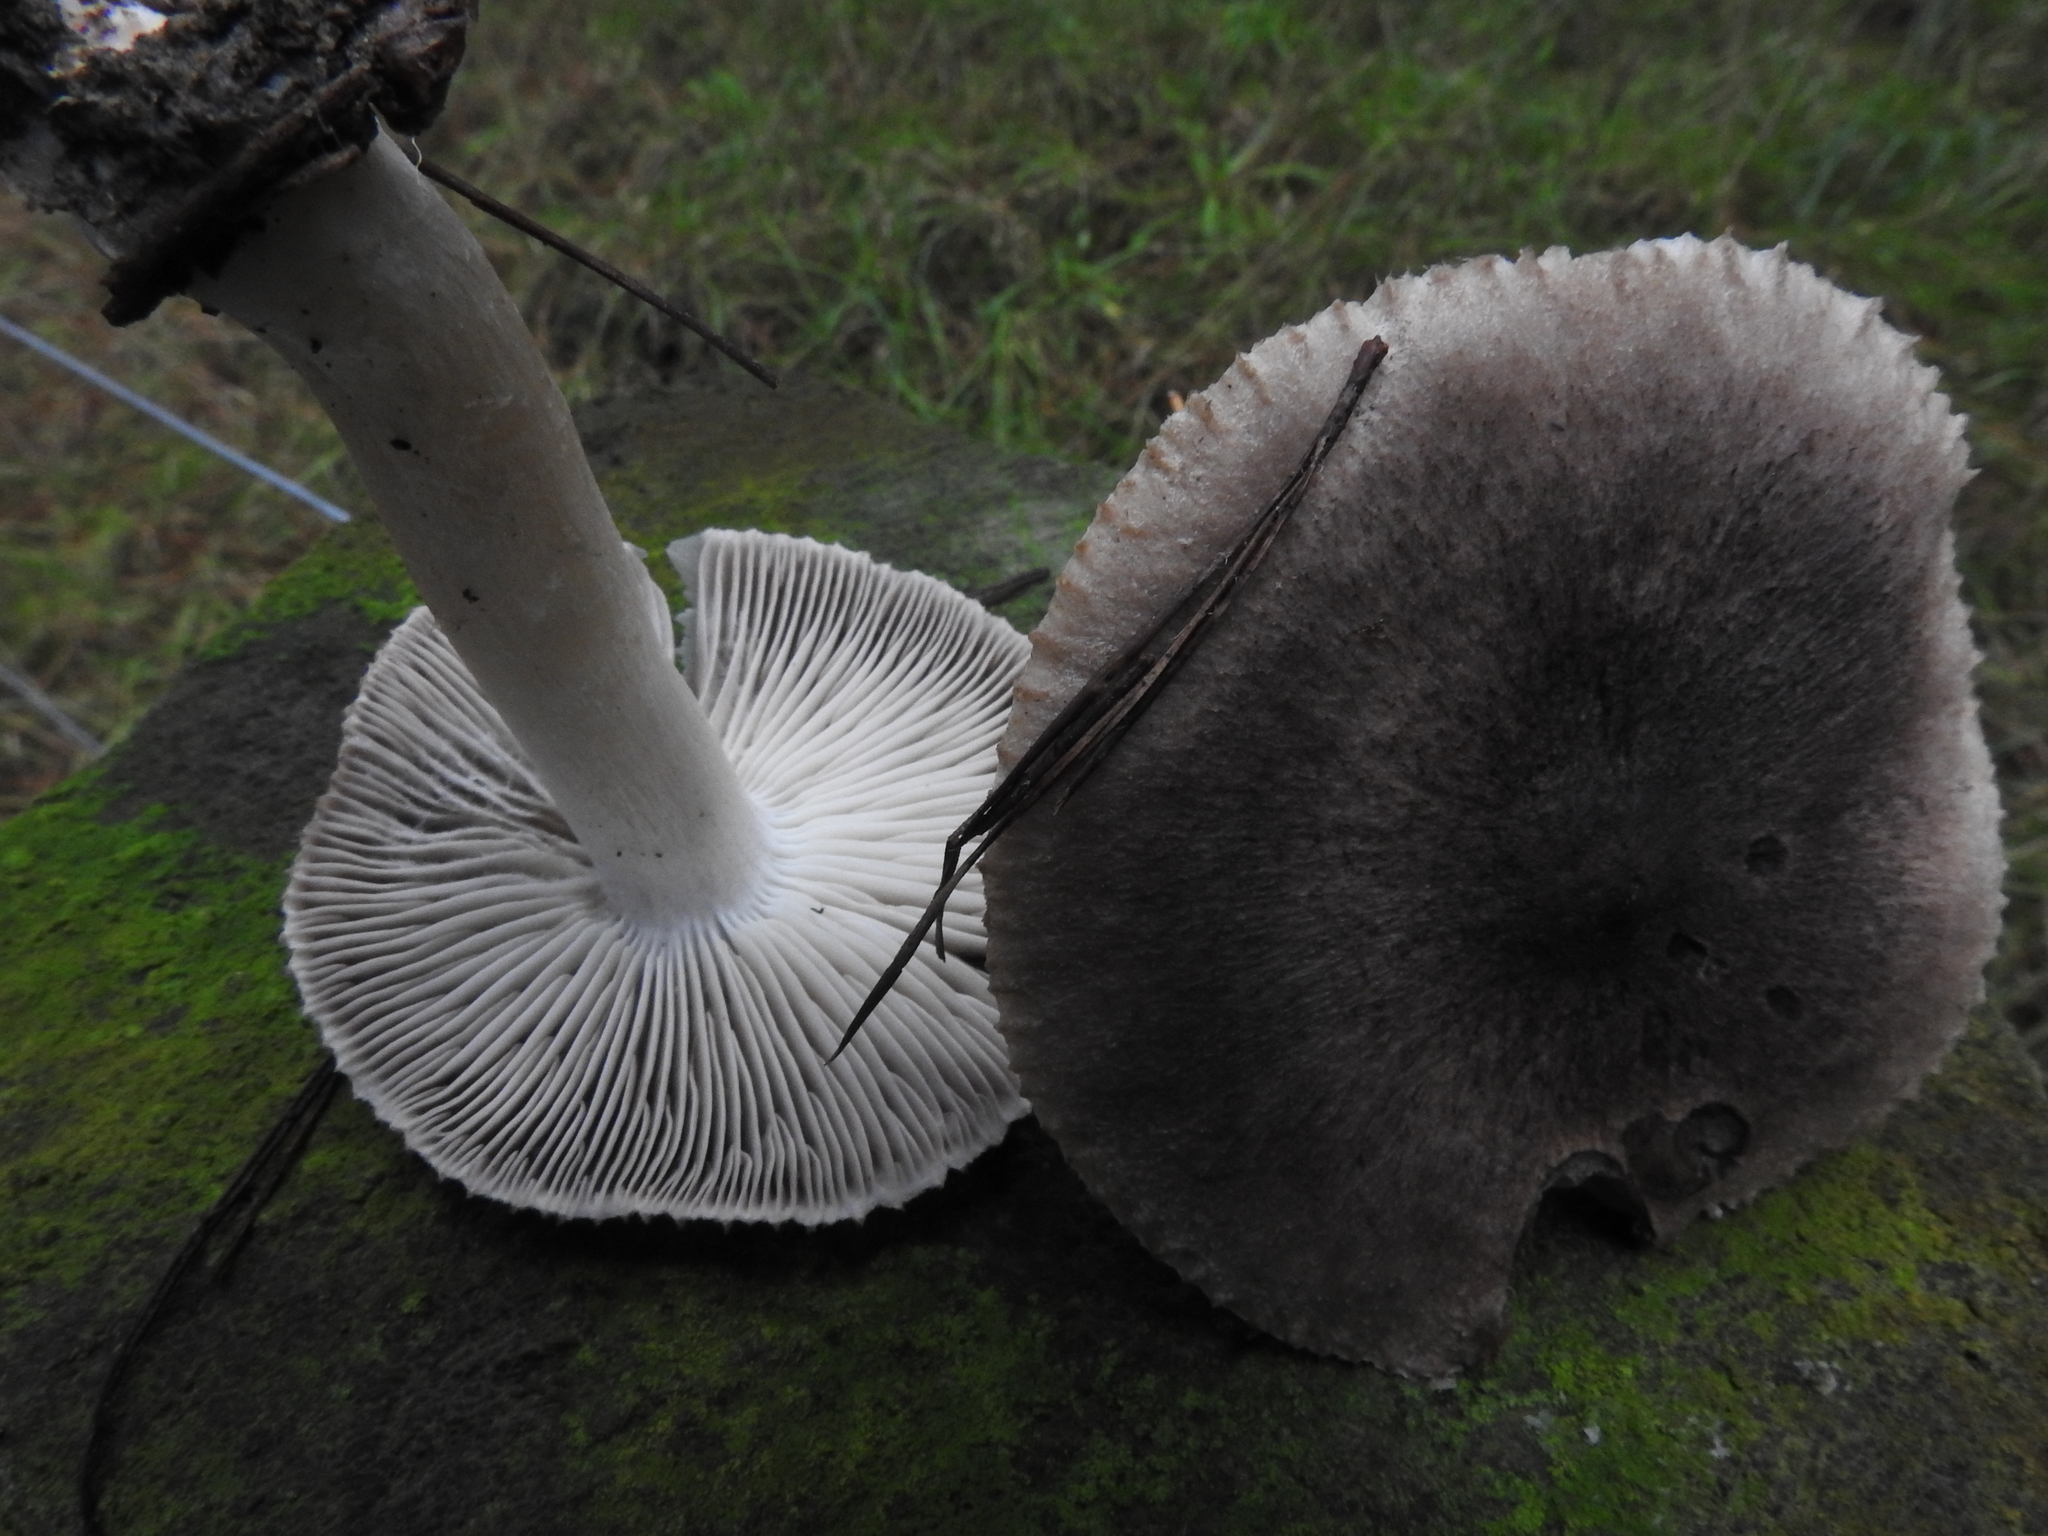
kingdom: Fungi
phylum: Basidiomycota
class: Agaricomycetes
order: Agaricales
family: Tricholomataceae
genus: Tricholoma
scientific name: Tricholoma terreum
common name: Grey knight
